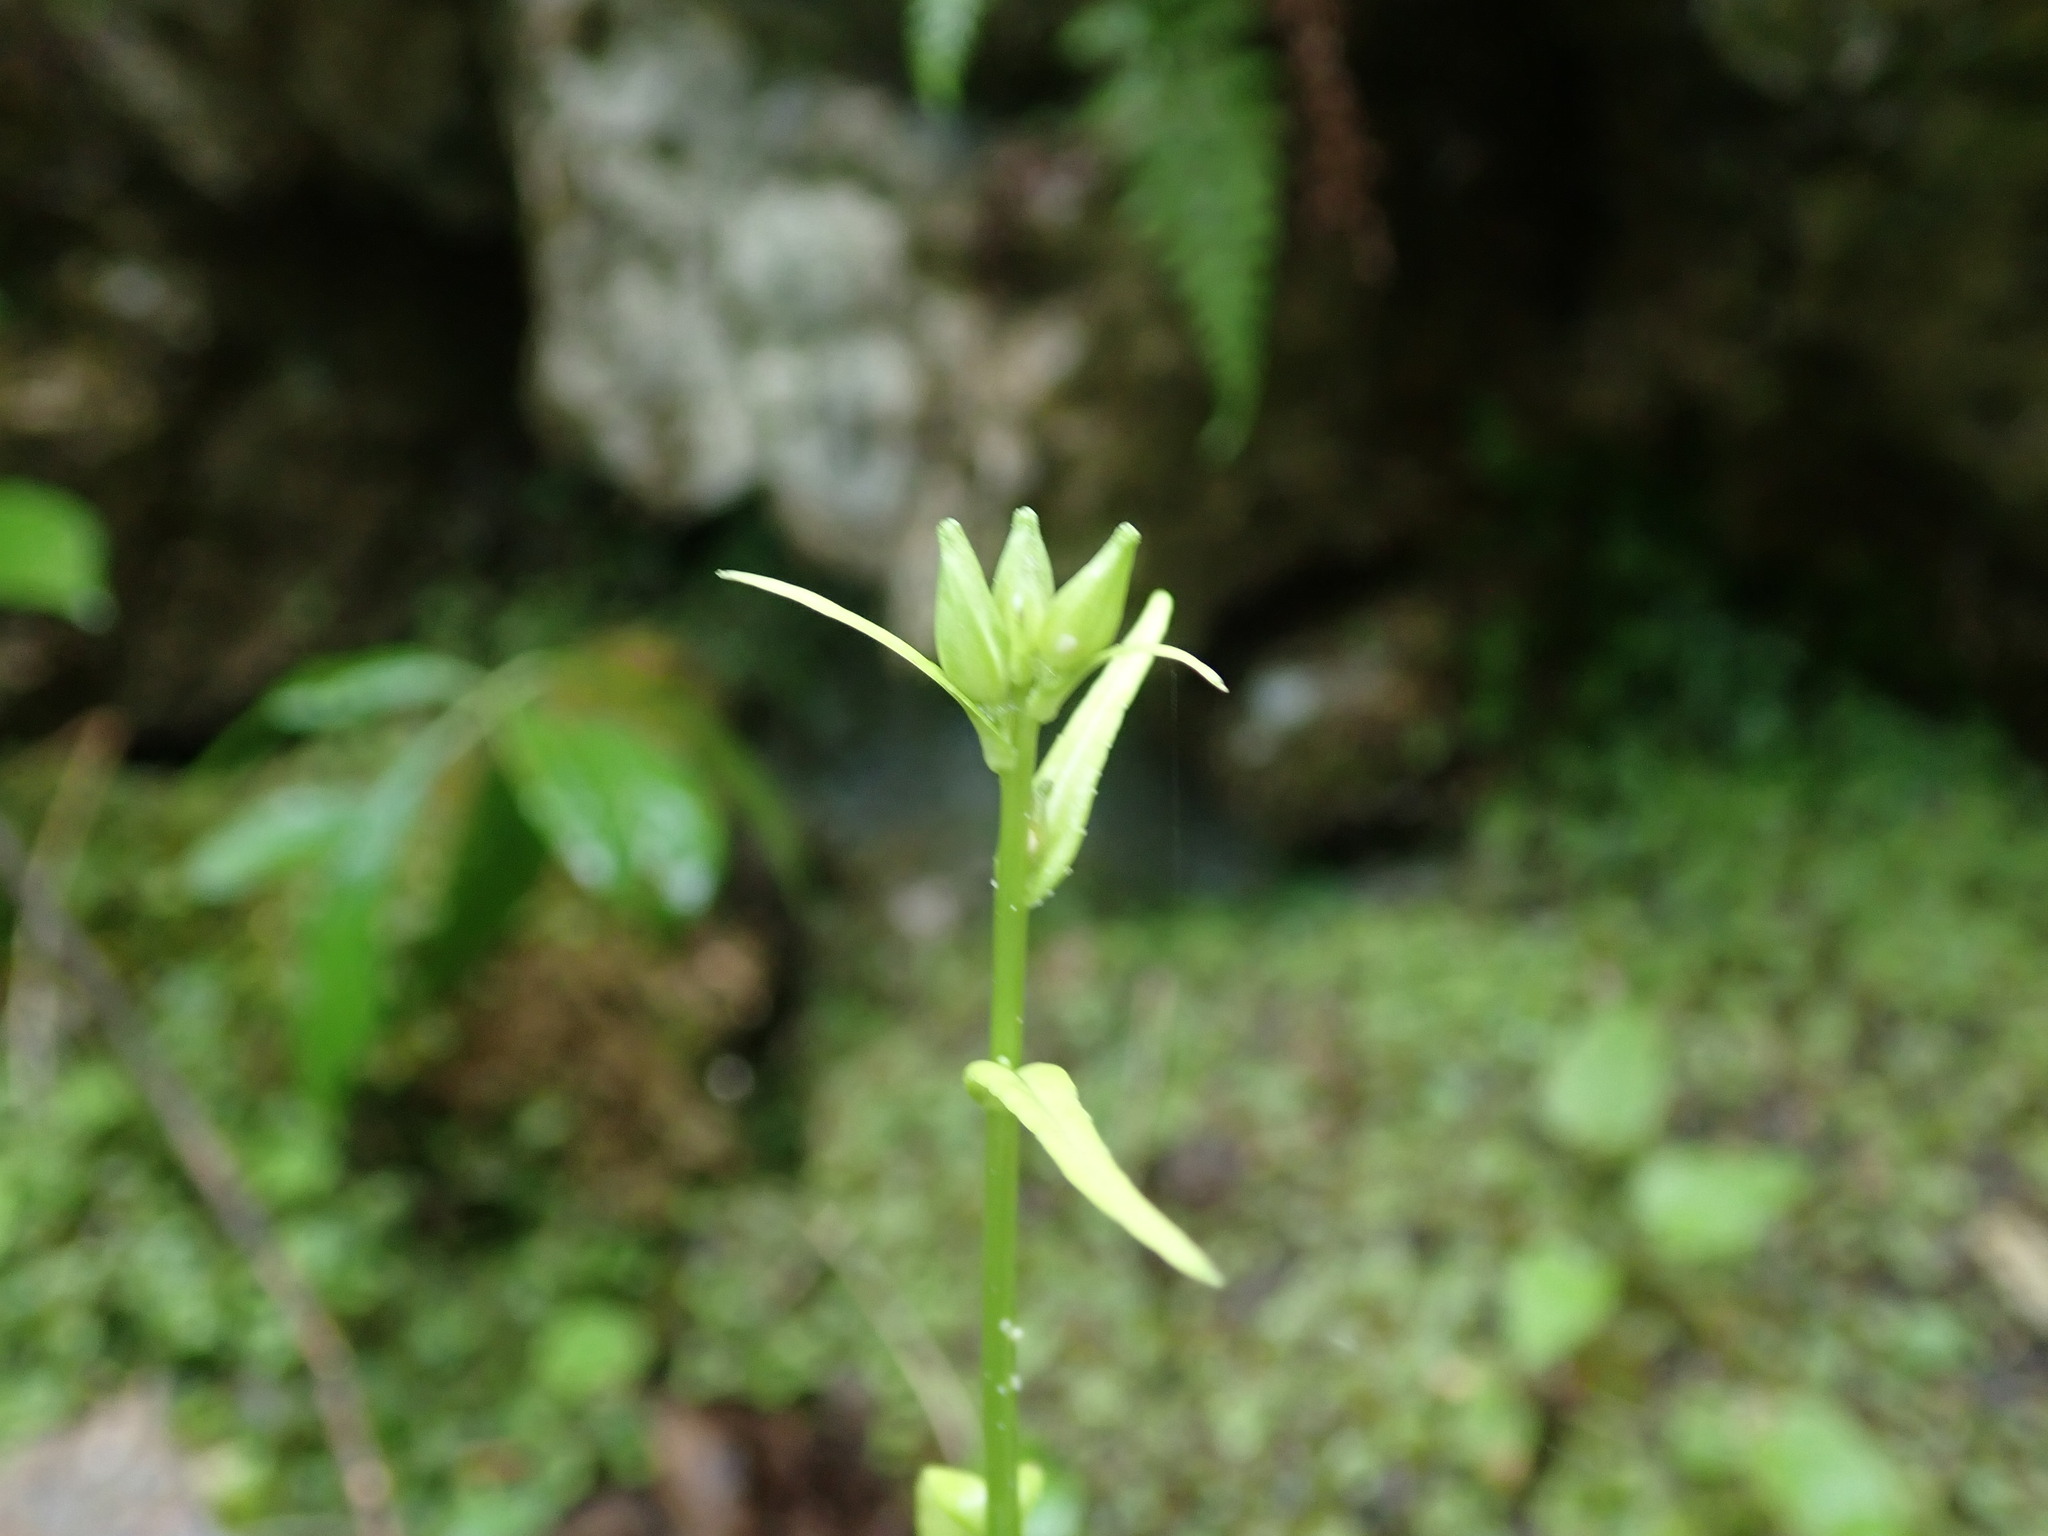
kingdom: Plantae
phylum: Tracheophyta
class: Magnoliopsida
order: Asterales
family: Campanulaceae
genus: Campanula
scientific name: Campanula persicifolia
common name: Peach-leaved bellflower
